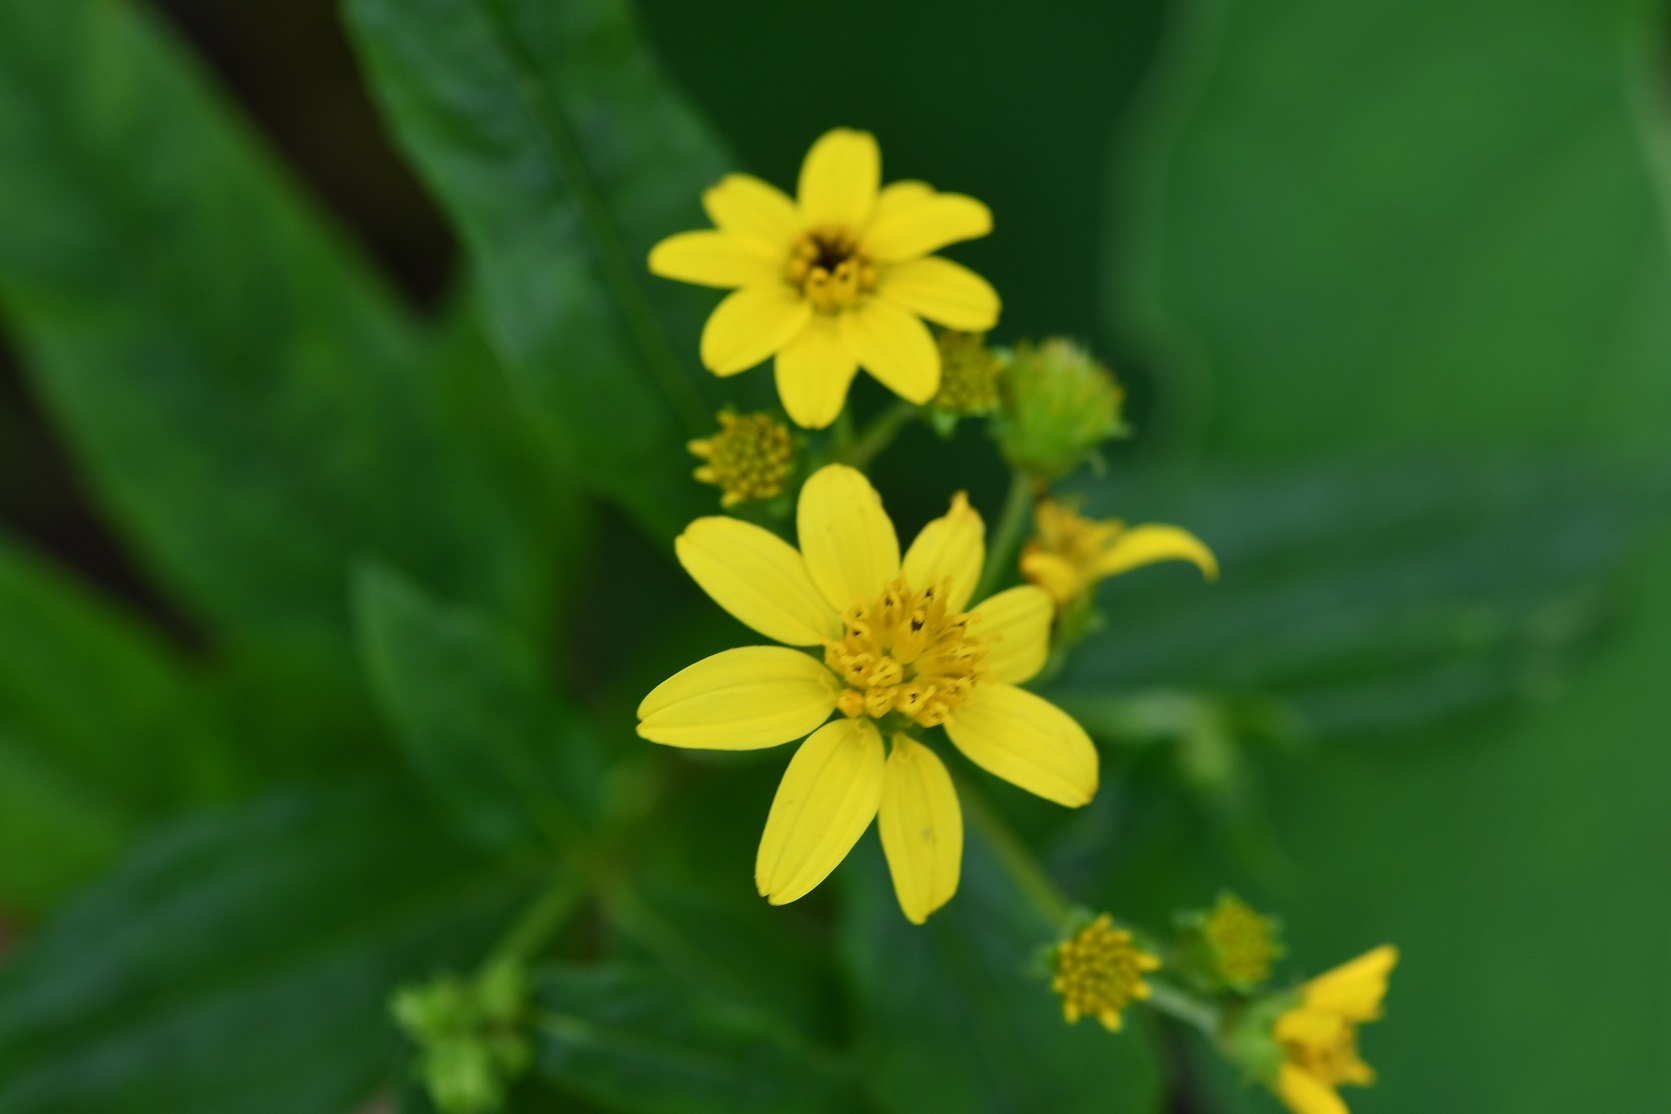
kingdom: Plantae
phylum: Tracheophyta
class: Magnoliopsida
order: Asterales
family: Asteraceae
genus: Perymenium
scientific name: Perymenium ghiesbreghtii
